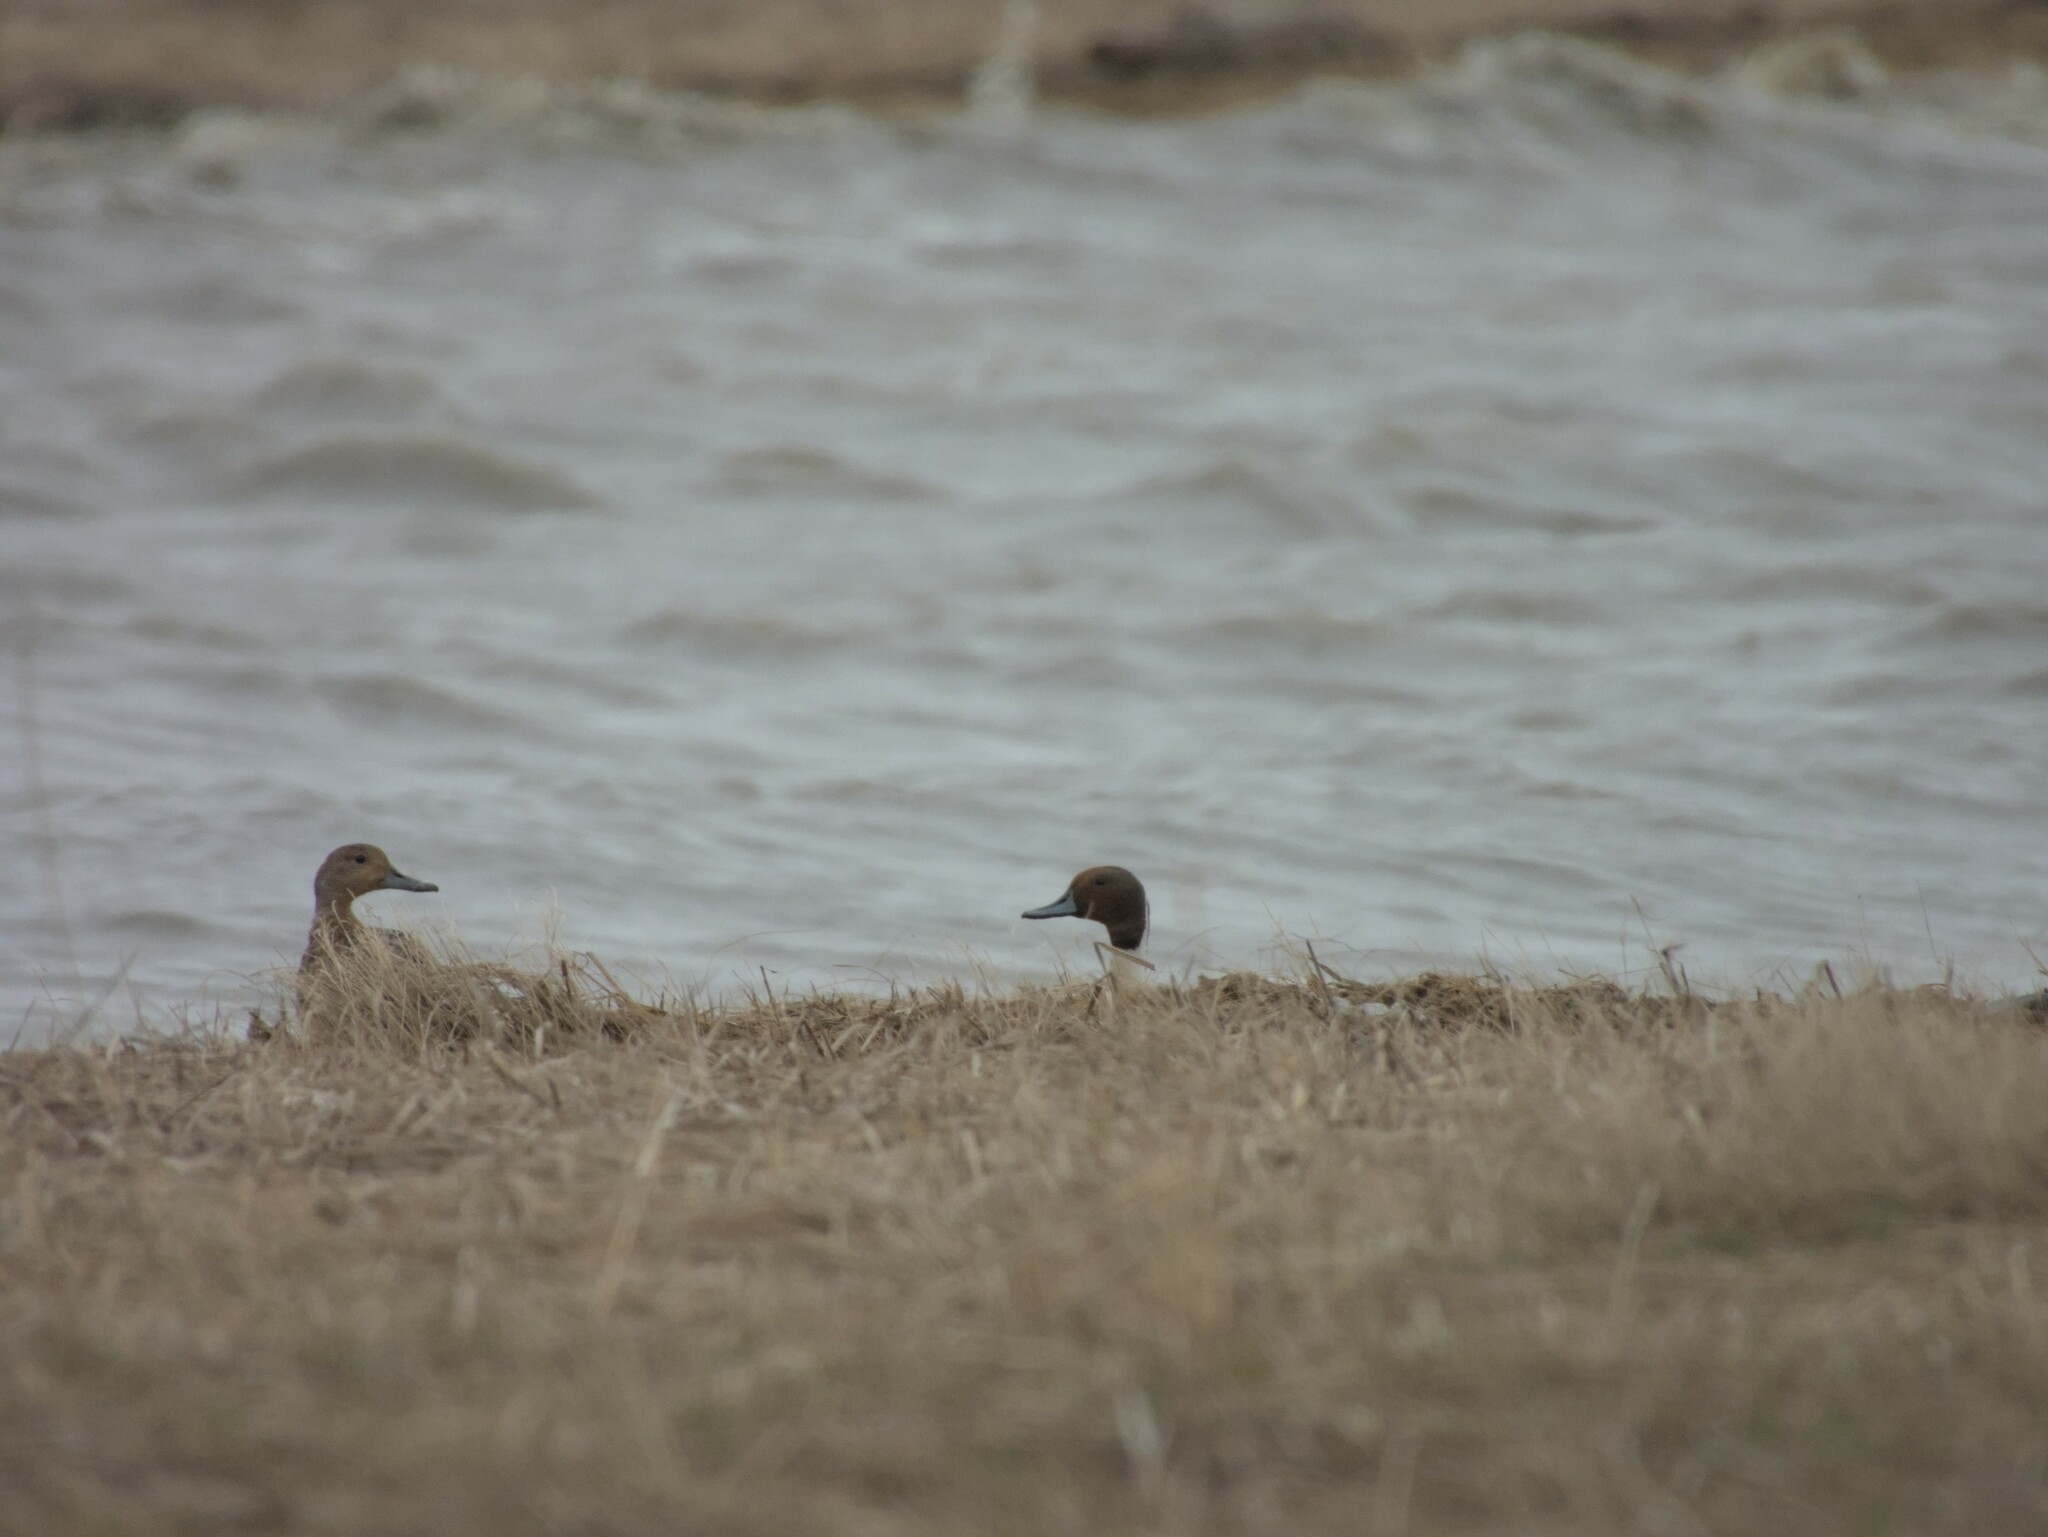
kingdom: Animalia
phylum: Chordata
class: Aves
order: Anseriformes
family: Anatidae
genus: Anas
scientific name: Anas acuta
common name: Northern pintail
